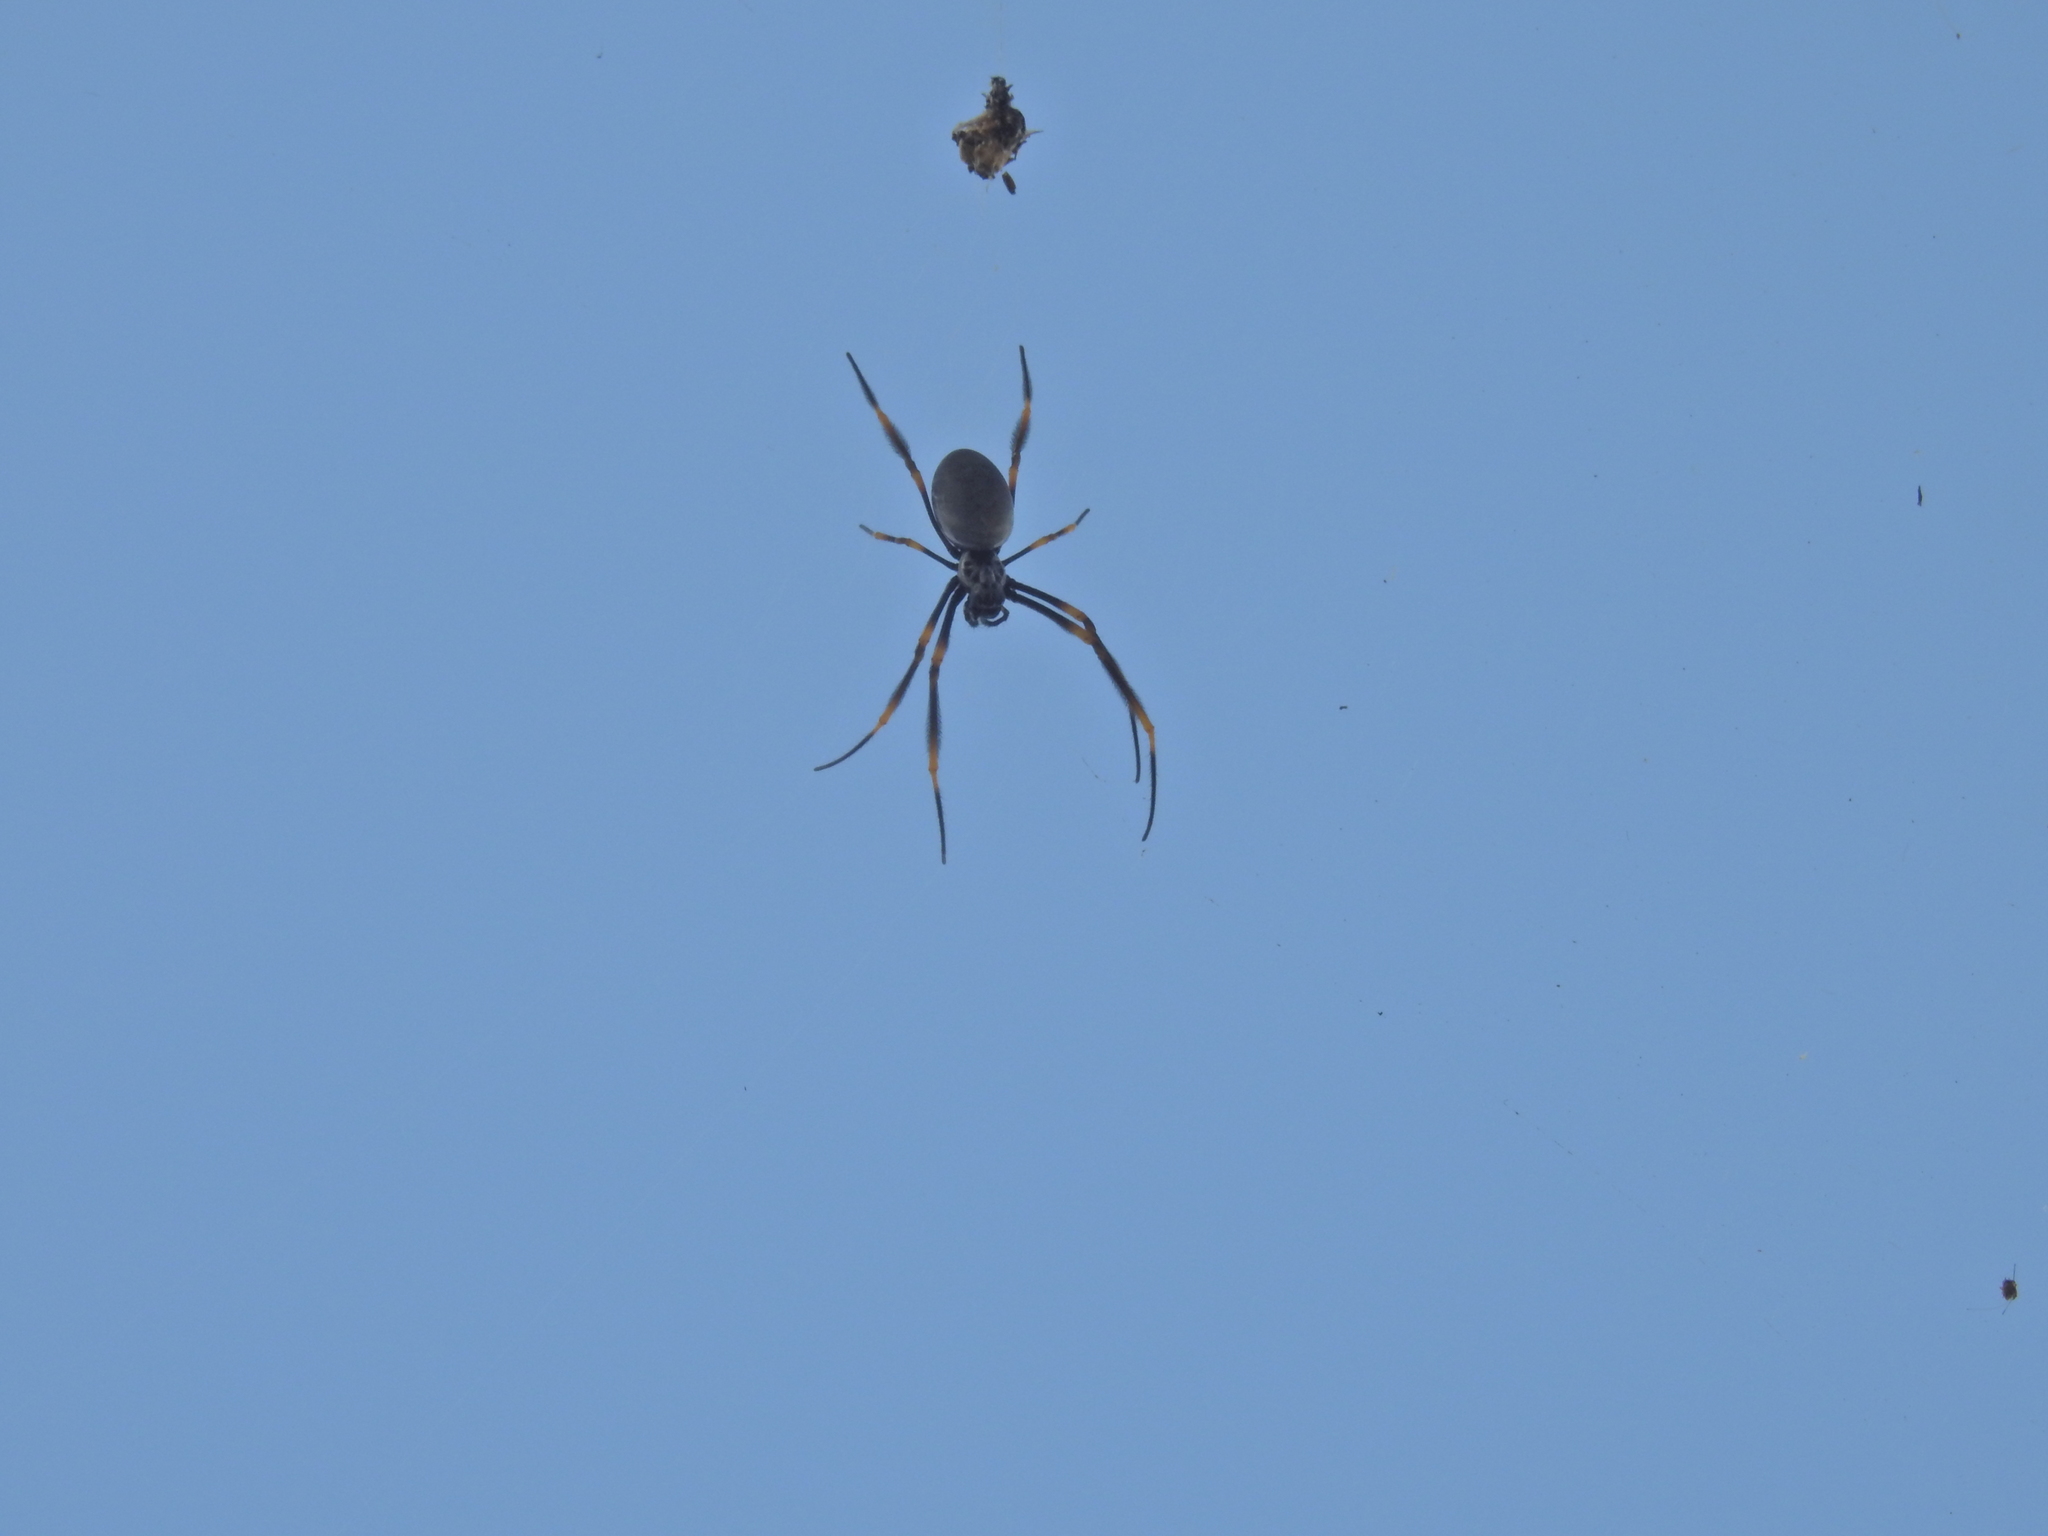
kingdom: Animalia
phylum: Arthropoda
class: Arachnida
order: Araneae
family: Araneidae
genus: Trichonephila
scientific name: Trichonephila plumipes
